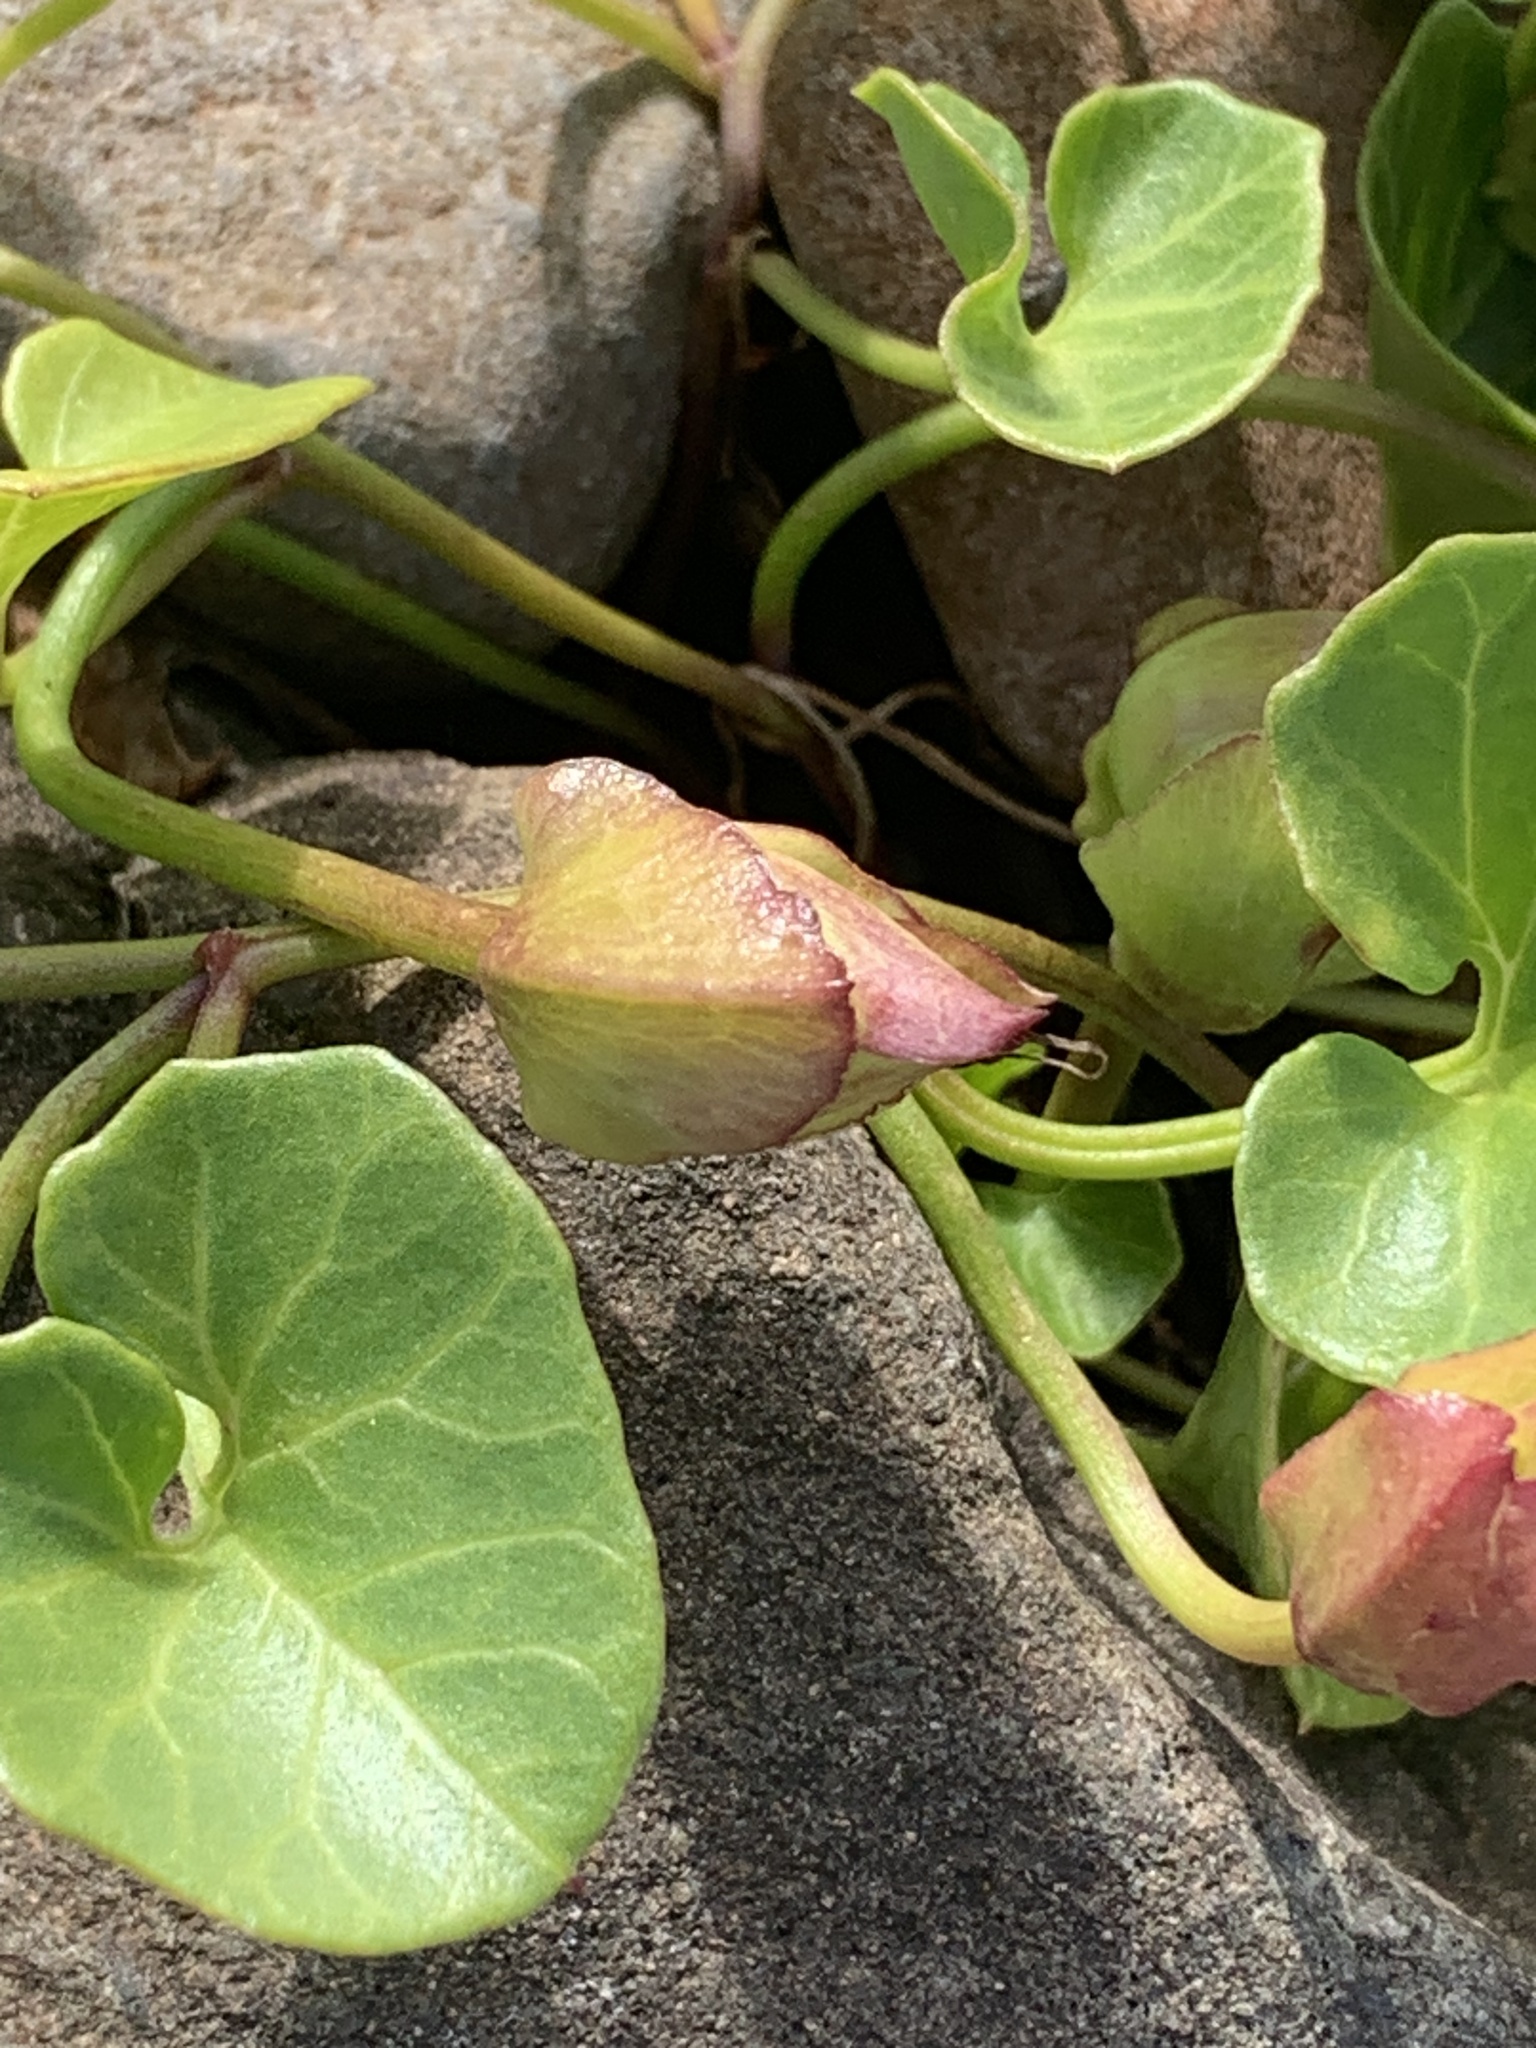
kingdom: Plantae
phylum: Tracheophyta
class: Magnoliopsida
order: Solanales
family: Convolvulaceae
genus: Calystegia
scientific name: Calystegia soldanella
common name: Sea bindweed
